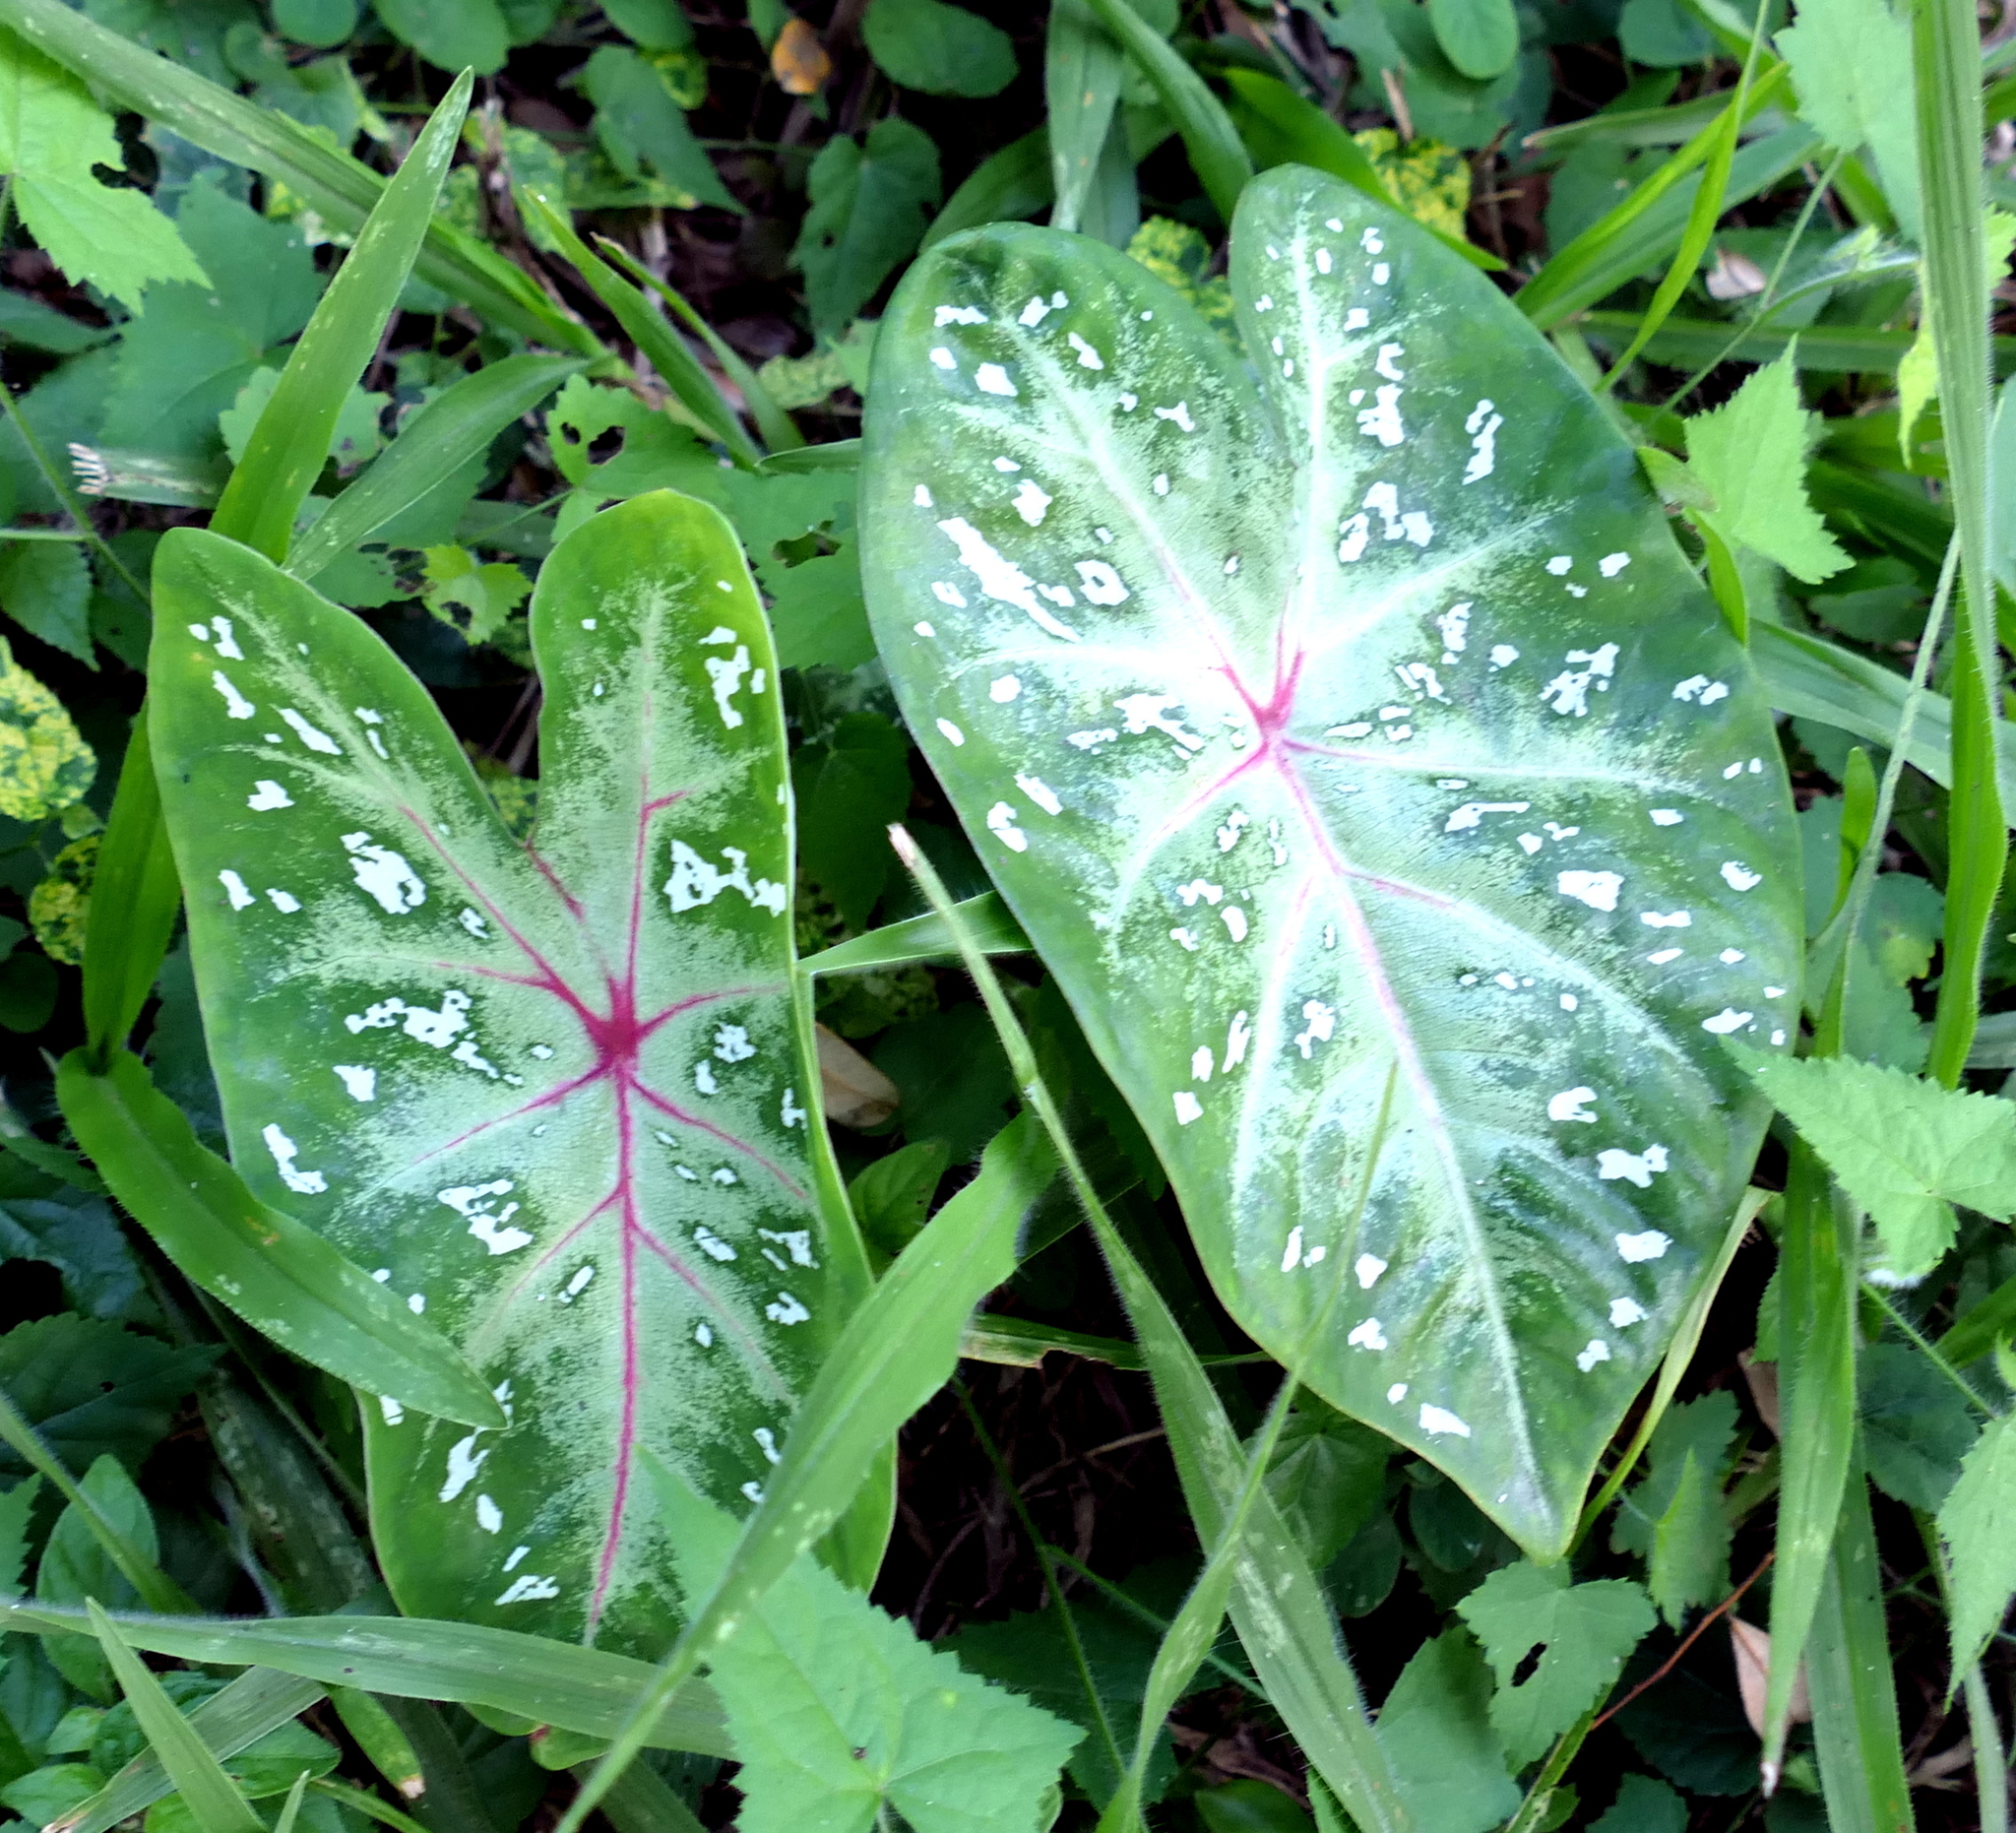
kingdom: Plantae
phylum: Tracheophyta
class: Liliopsida
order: Alismatales
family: Araceae
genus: Caladium
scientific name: Caladium bicolor
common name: Artist's pallet
